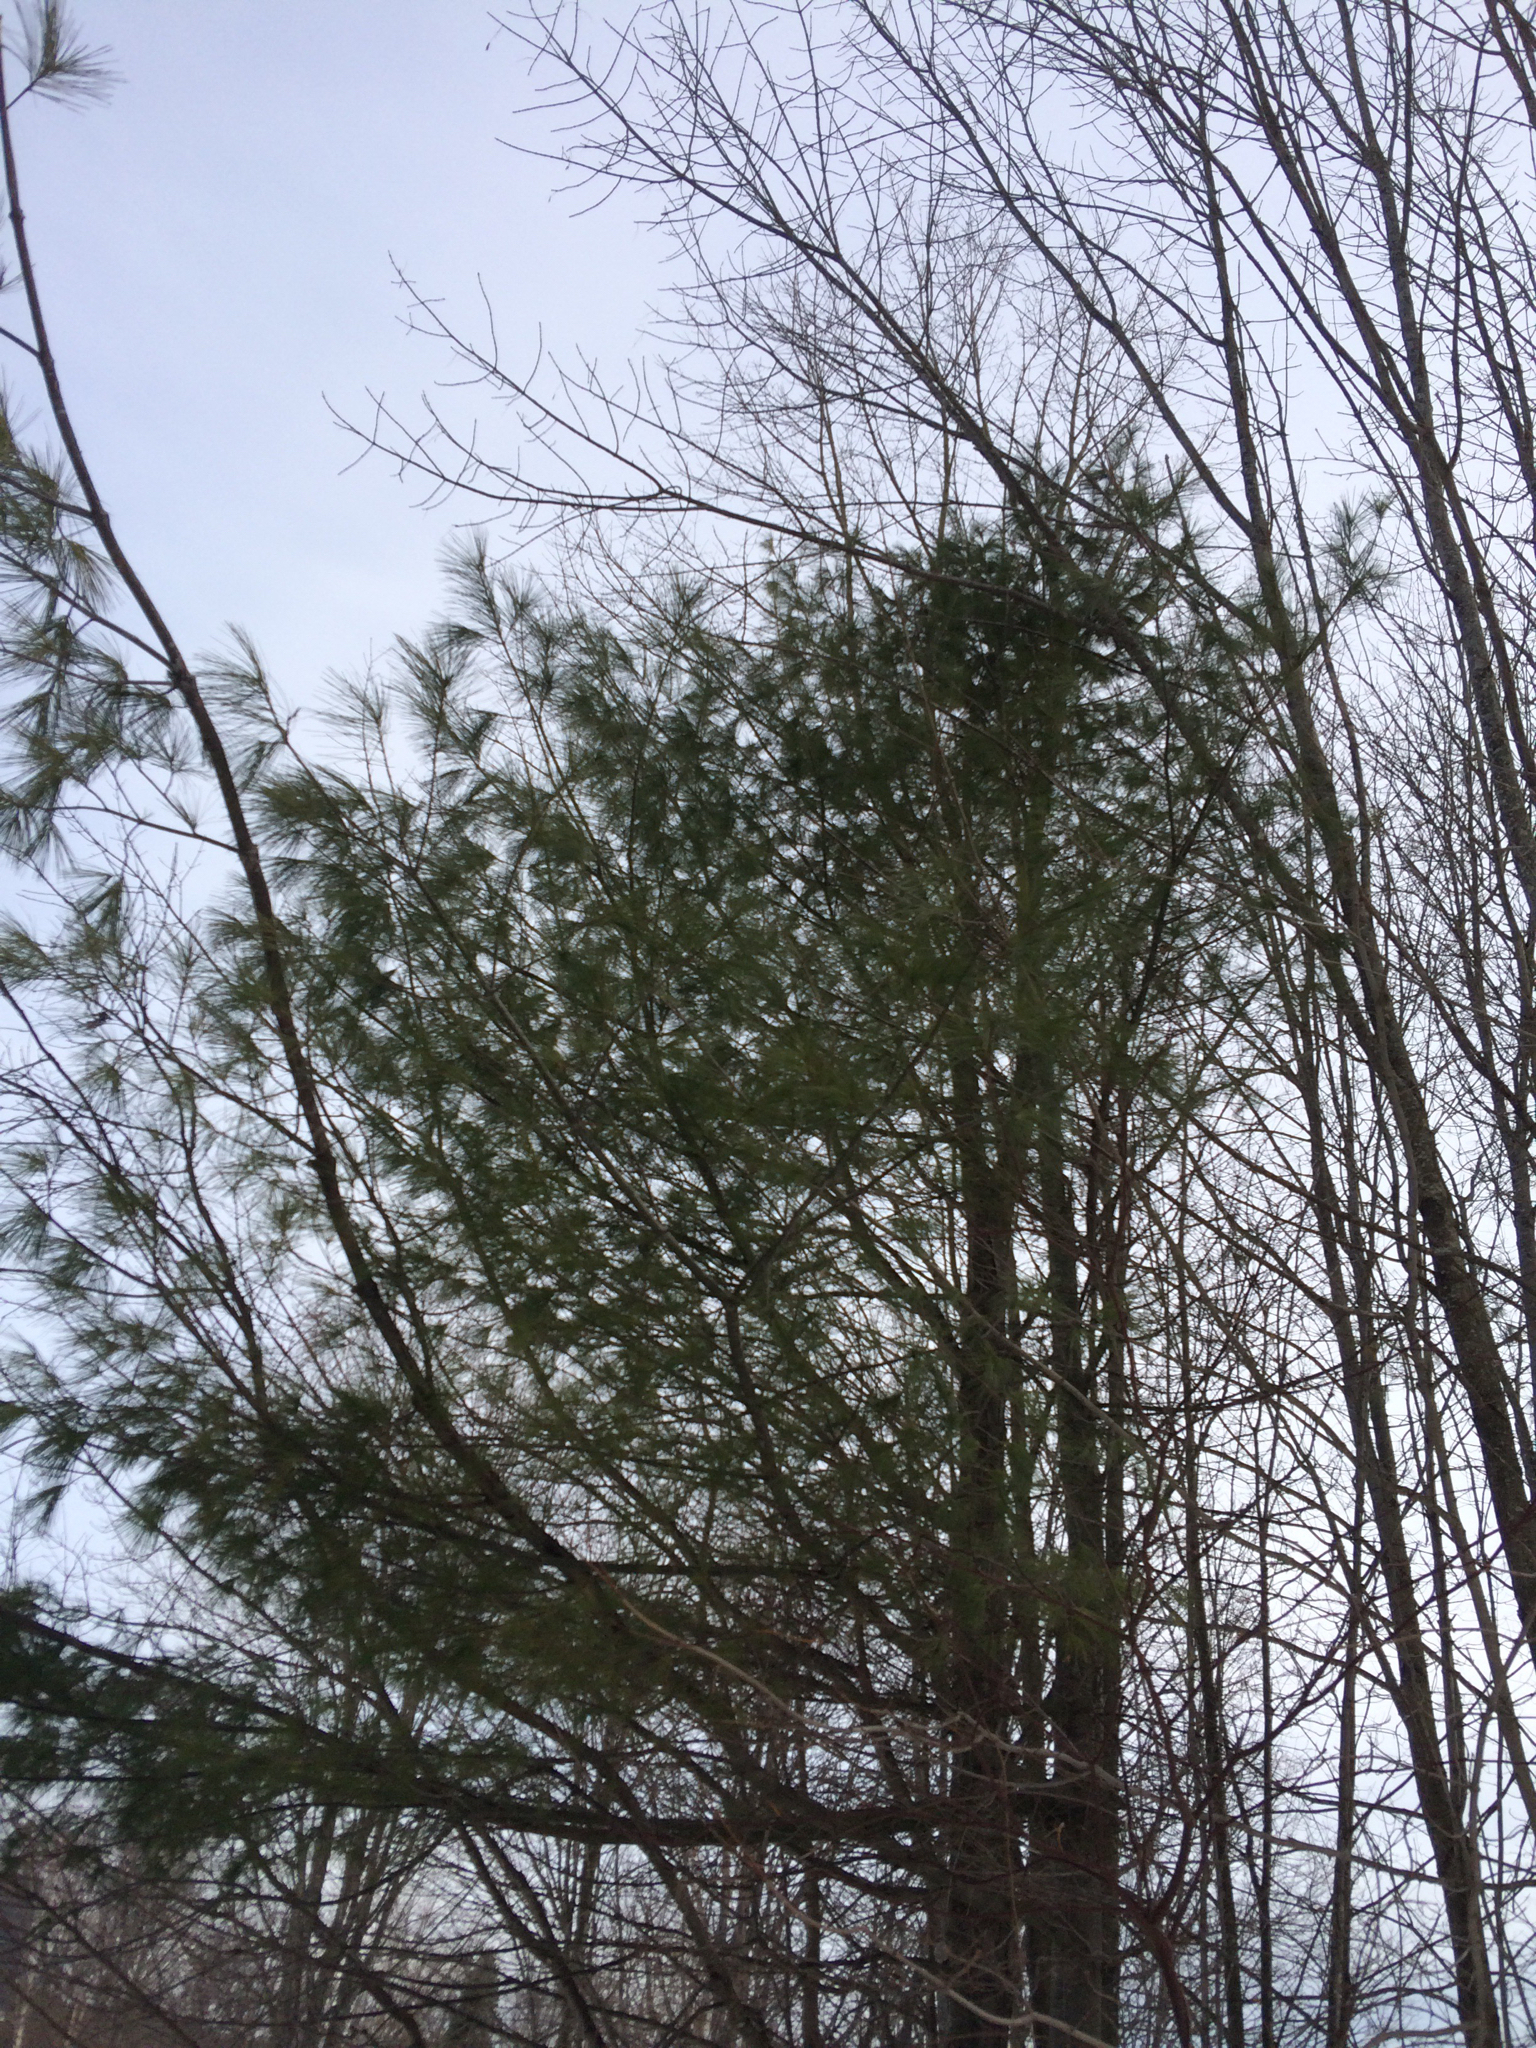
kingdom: Plantae
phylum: Tracheophyta
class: Pinopsida
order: Pinales
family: Pinaceae
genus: Pinus
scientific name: Pinus strobus
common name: Weymouth pine
